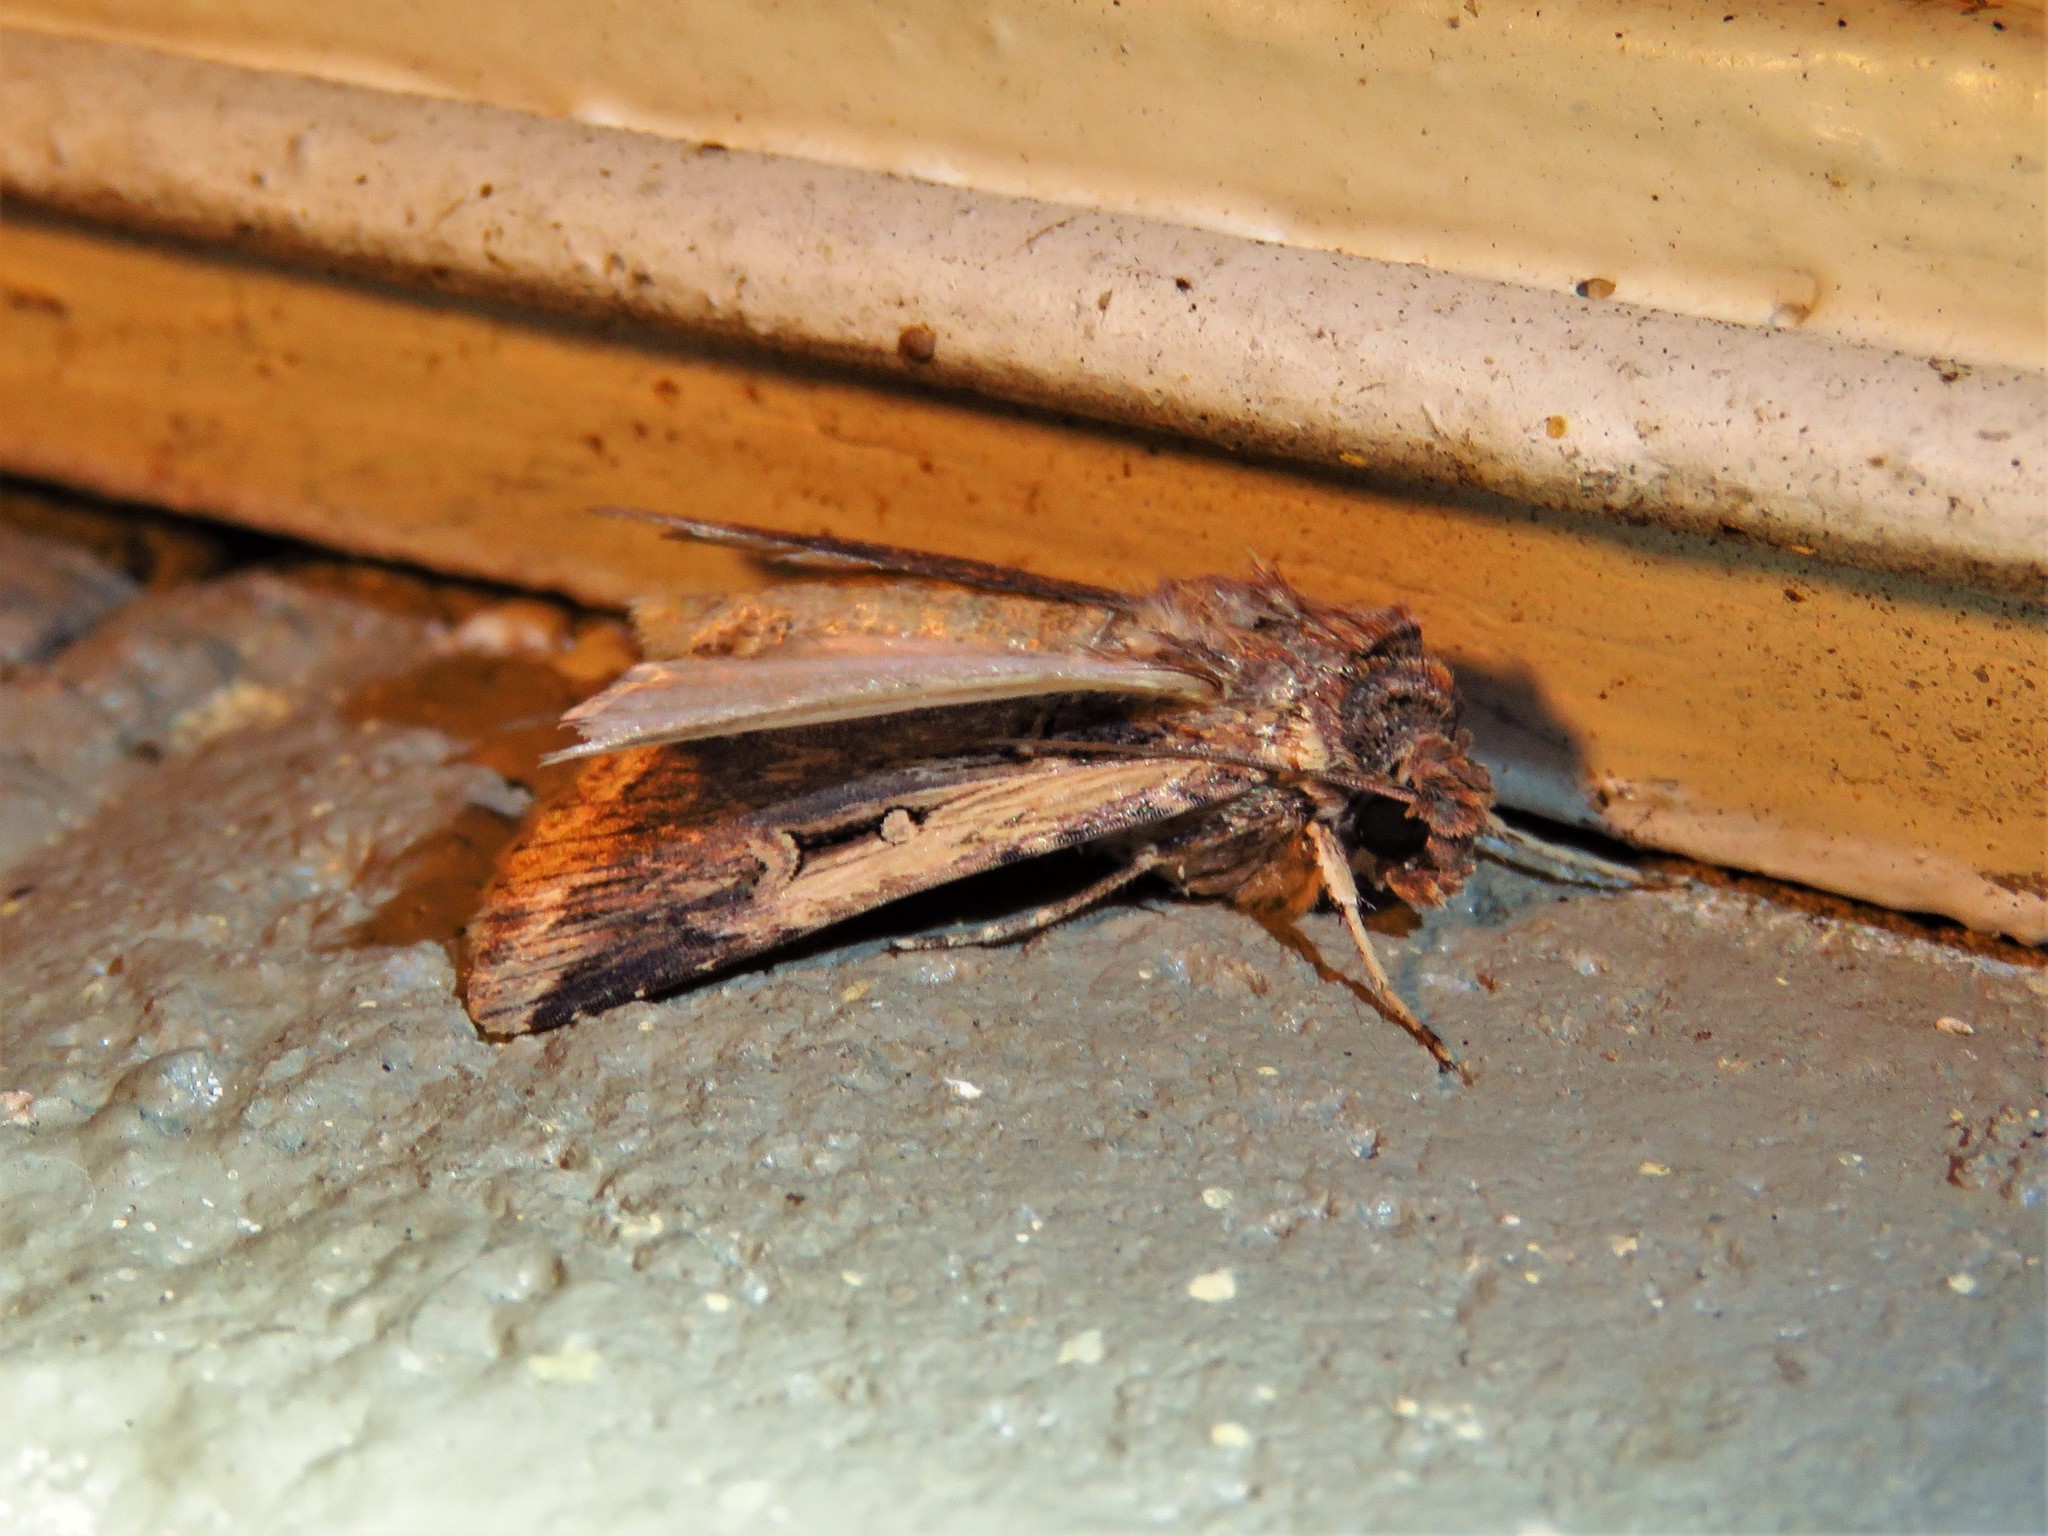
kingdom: Animalia
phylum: Arthropoda
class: Insecta
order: Lepidoptera
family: Noctuidae
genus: Feltia
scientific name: Feltia subterranea
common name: Granulate cutworm
